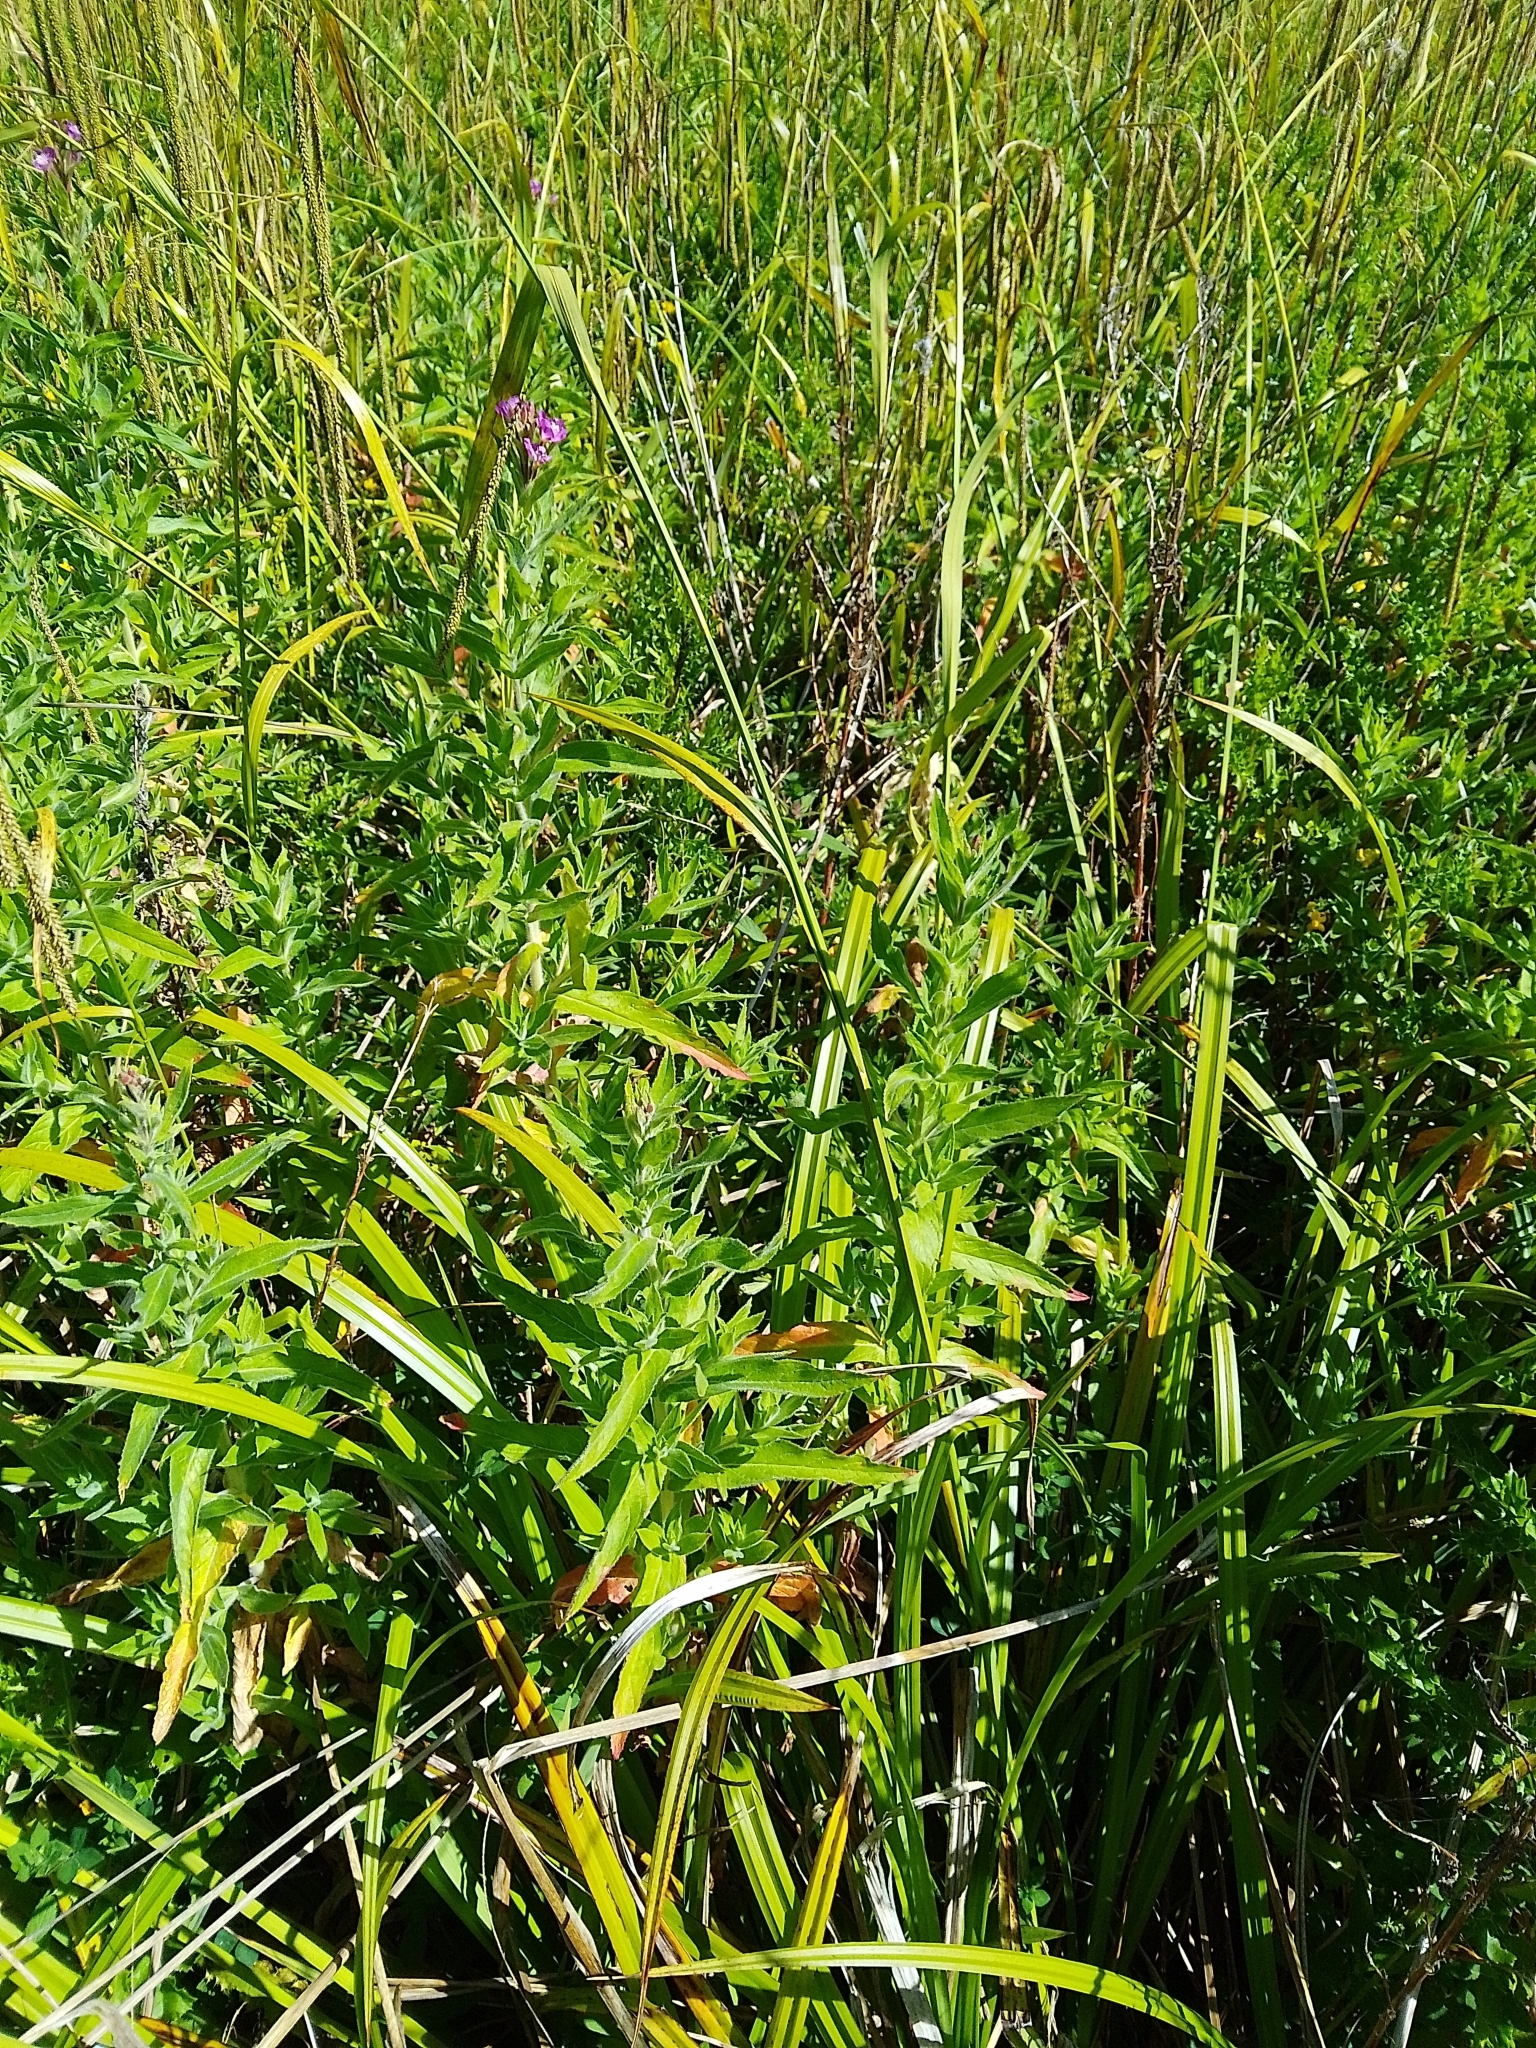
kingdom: Plantae
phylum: Tracheophyta
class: Magnoliopsida
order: Myrtales
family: Onagraceae
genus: Epilobium
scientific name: Epilobium hirsutum
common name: Great willowherb
